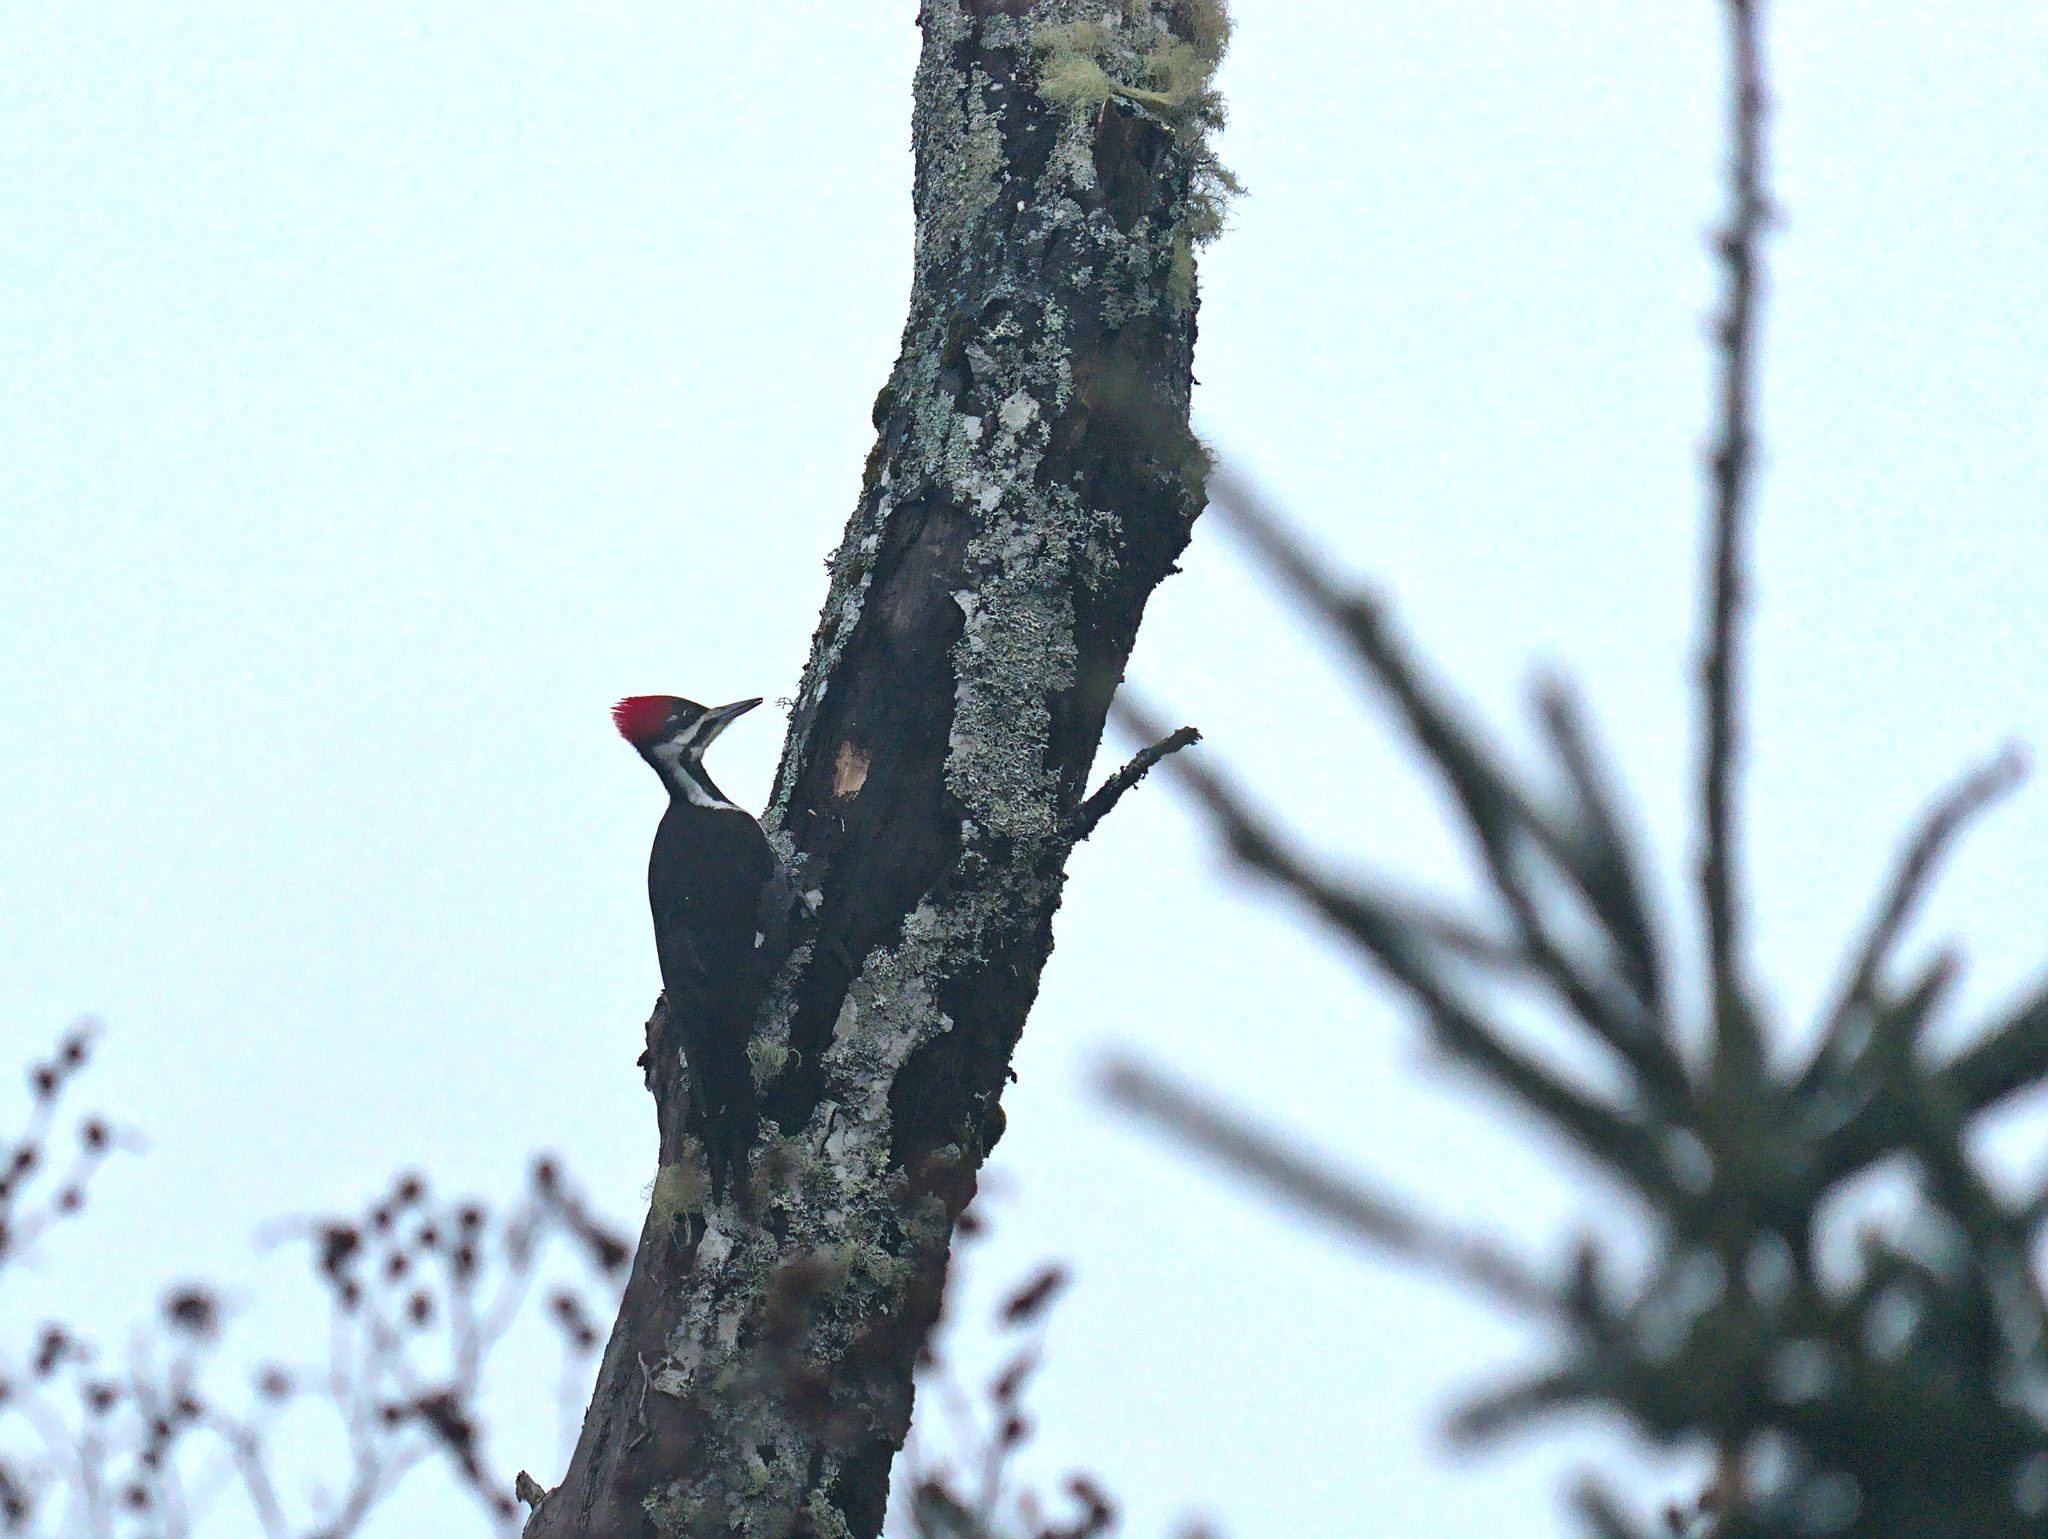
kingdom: Animalia
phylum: Chordata
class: Aves
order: Piciformes
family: Picidae
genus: Dryocopus
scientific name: Dryocopus pileatus
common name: Pileated woodpecker
